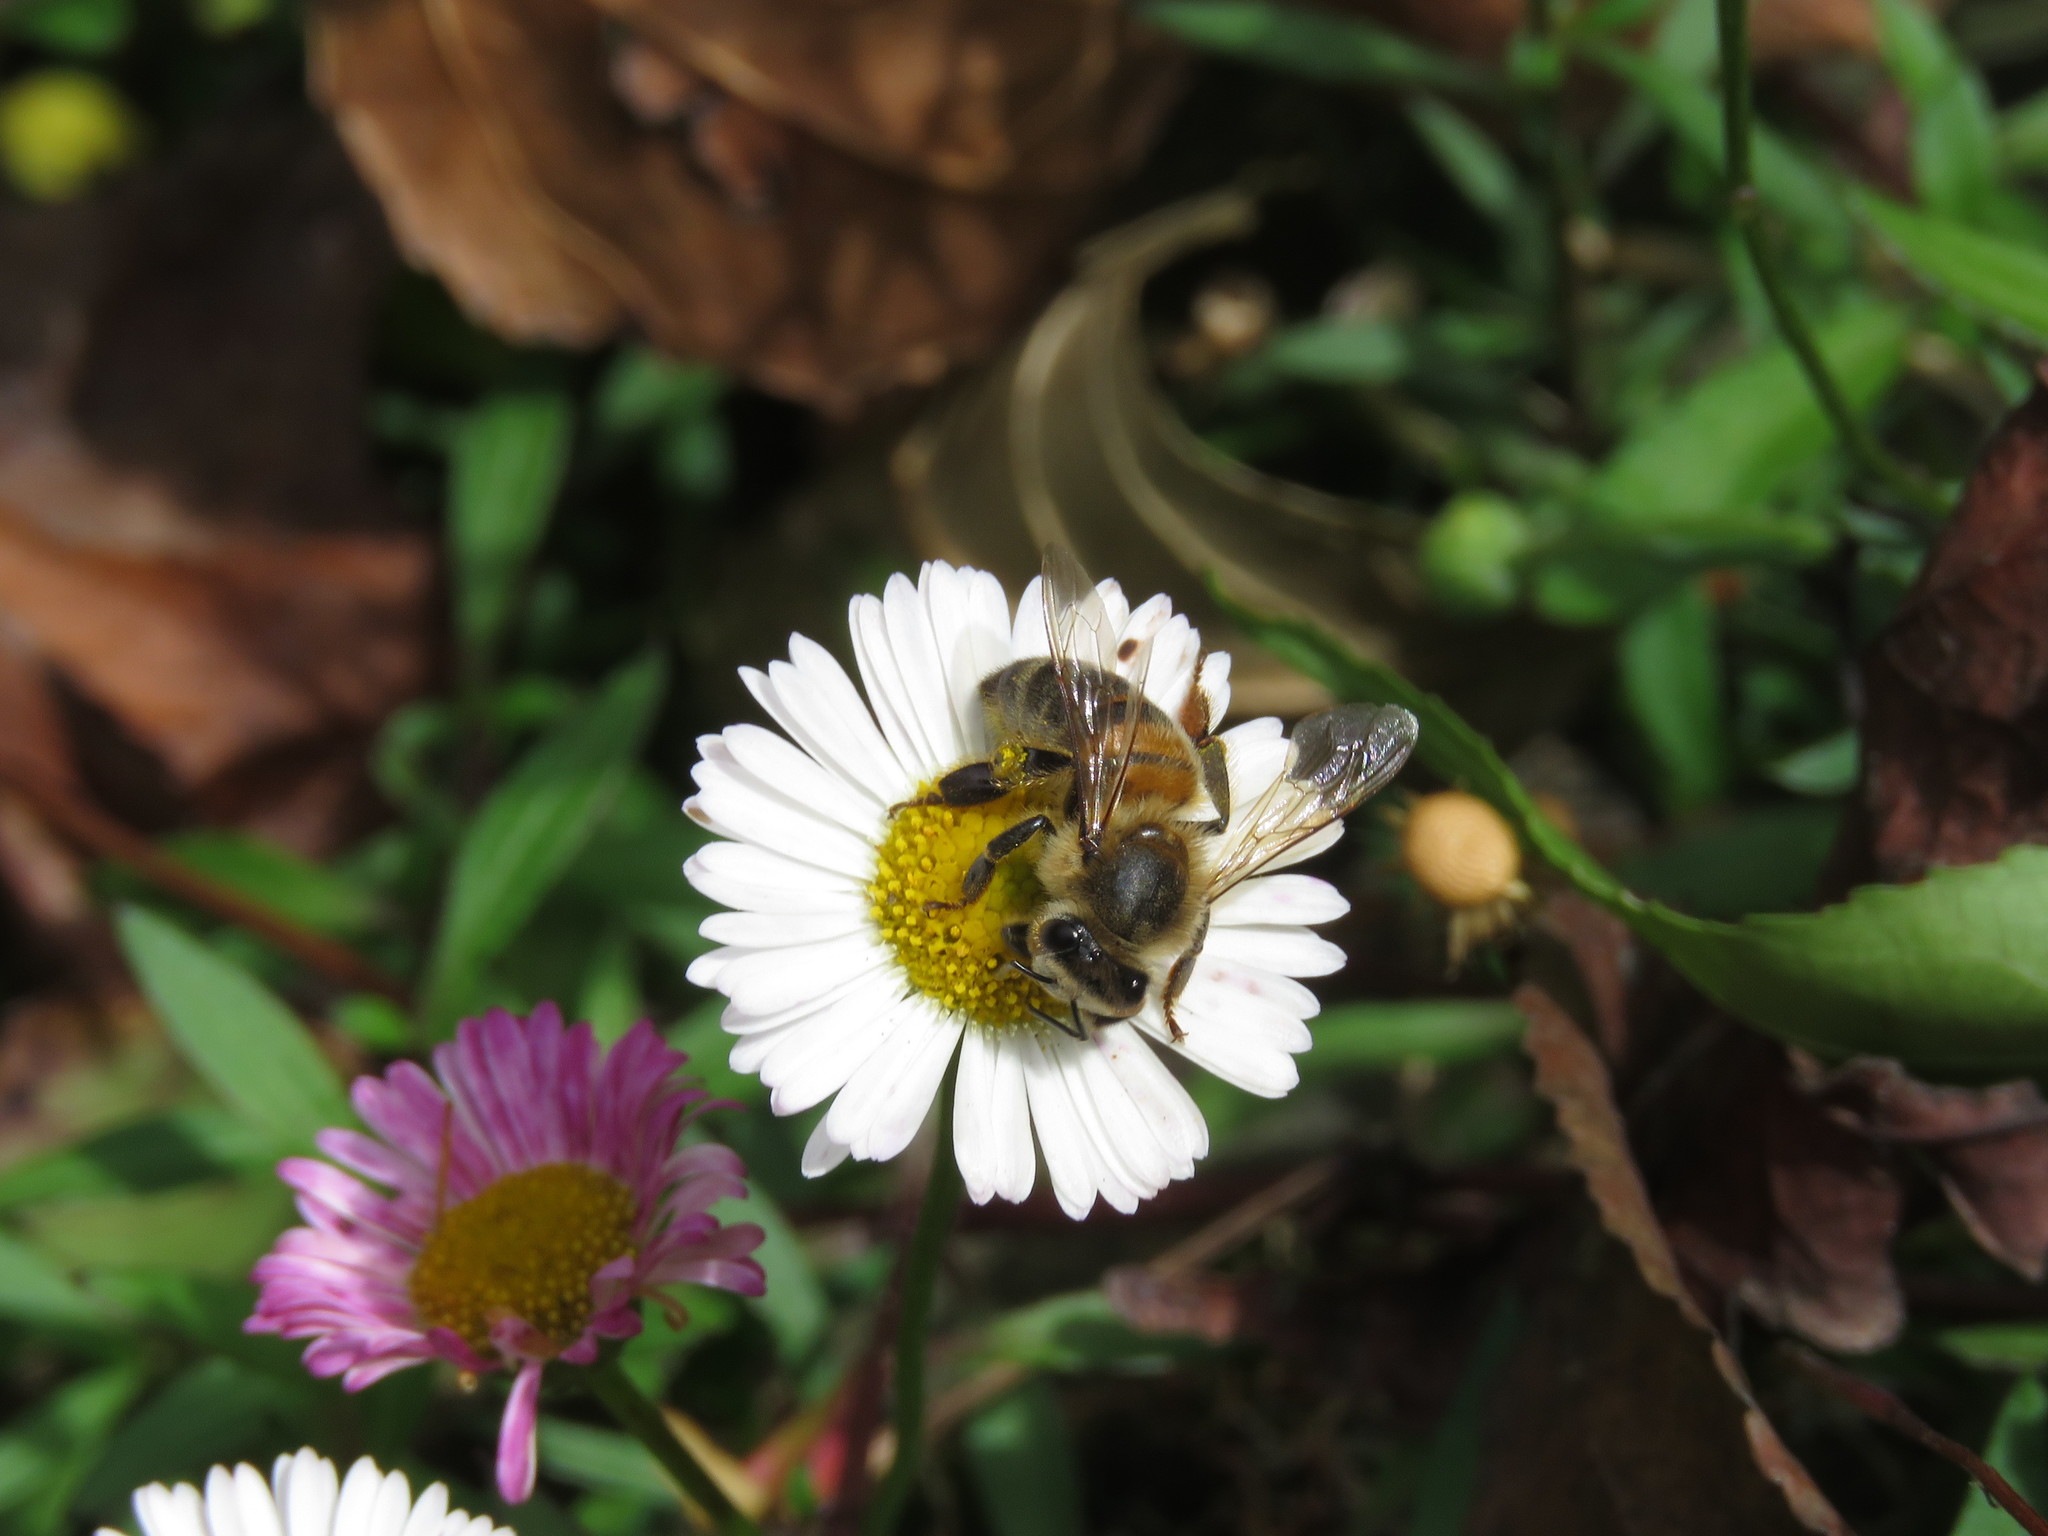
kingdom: Animalia
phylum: Arthropoda
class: Insecta
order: Hymenoptera
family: Apidae
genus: Apis
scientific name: Apis mellifera
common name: Honey bee
